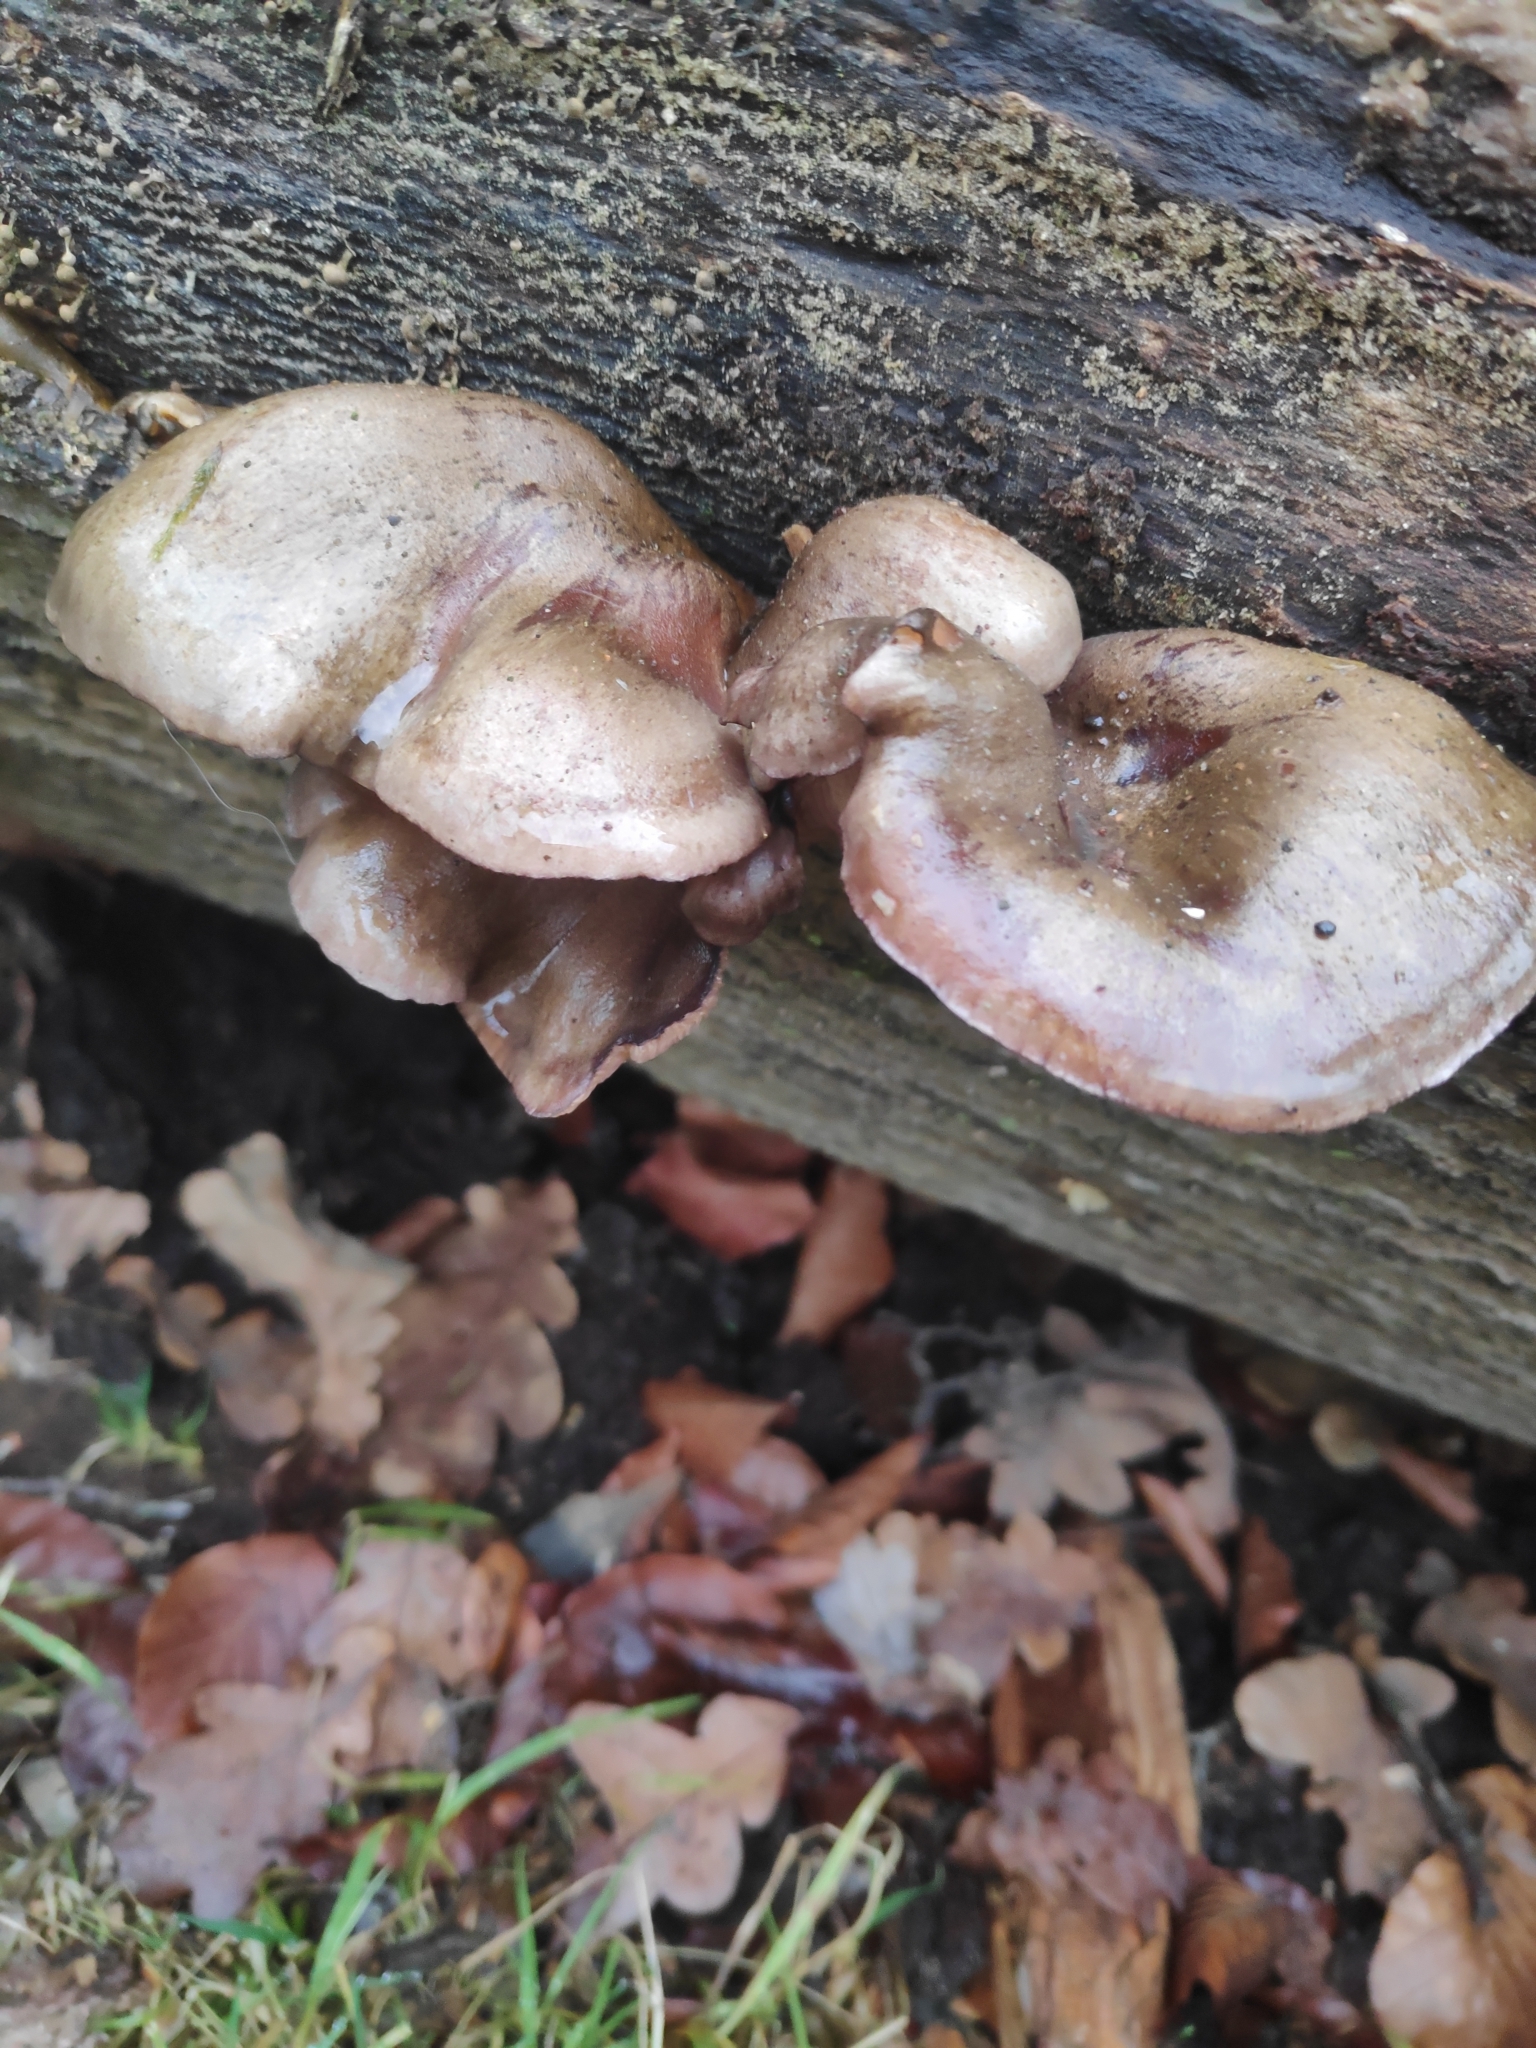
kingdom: Fungi
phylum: Basidiomycota
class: Agaricomycetes
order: Agaricales
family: Pleurotaceae
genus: Pleurotus
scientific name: Pleurotus ostreatus
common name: Oyster mushroom
